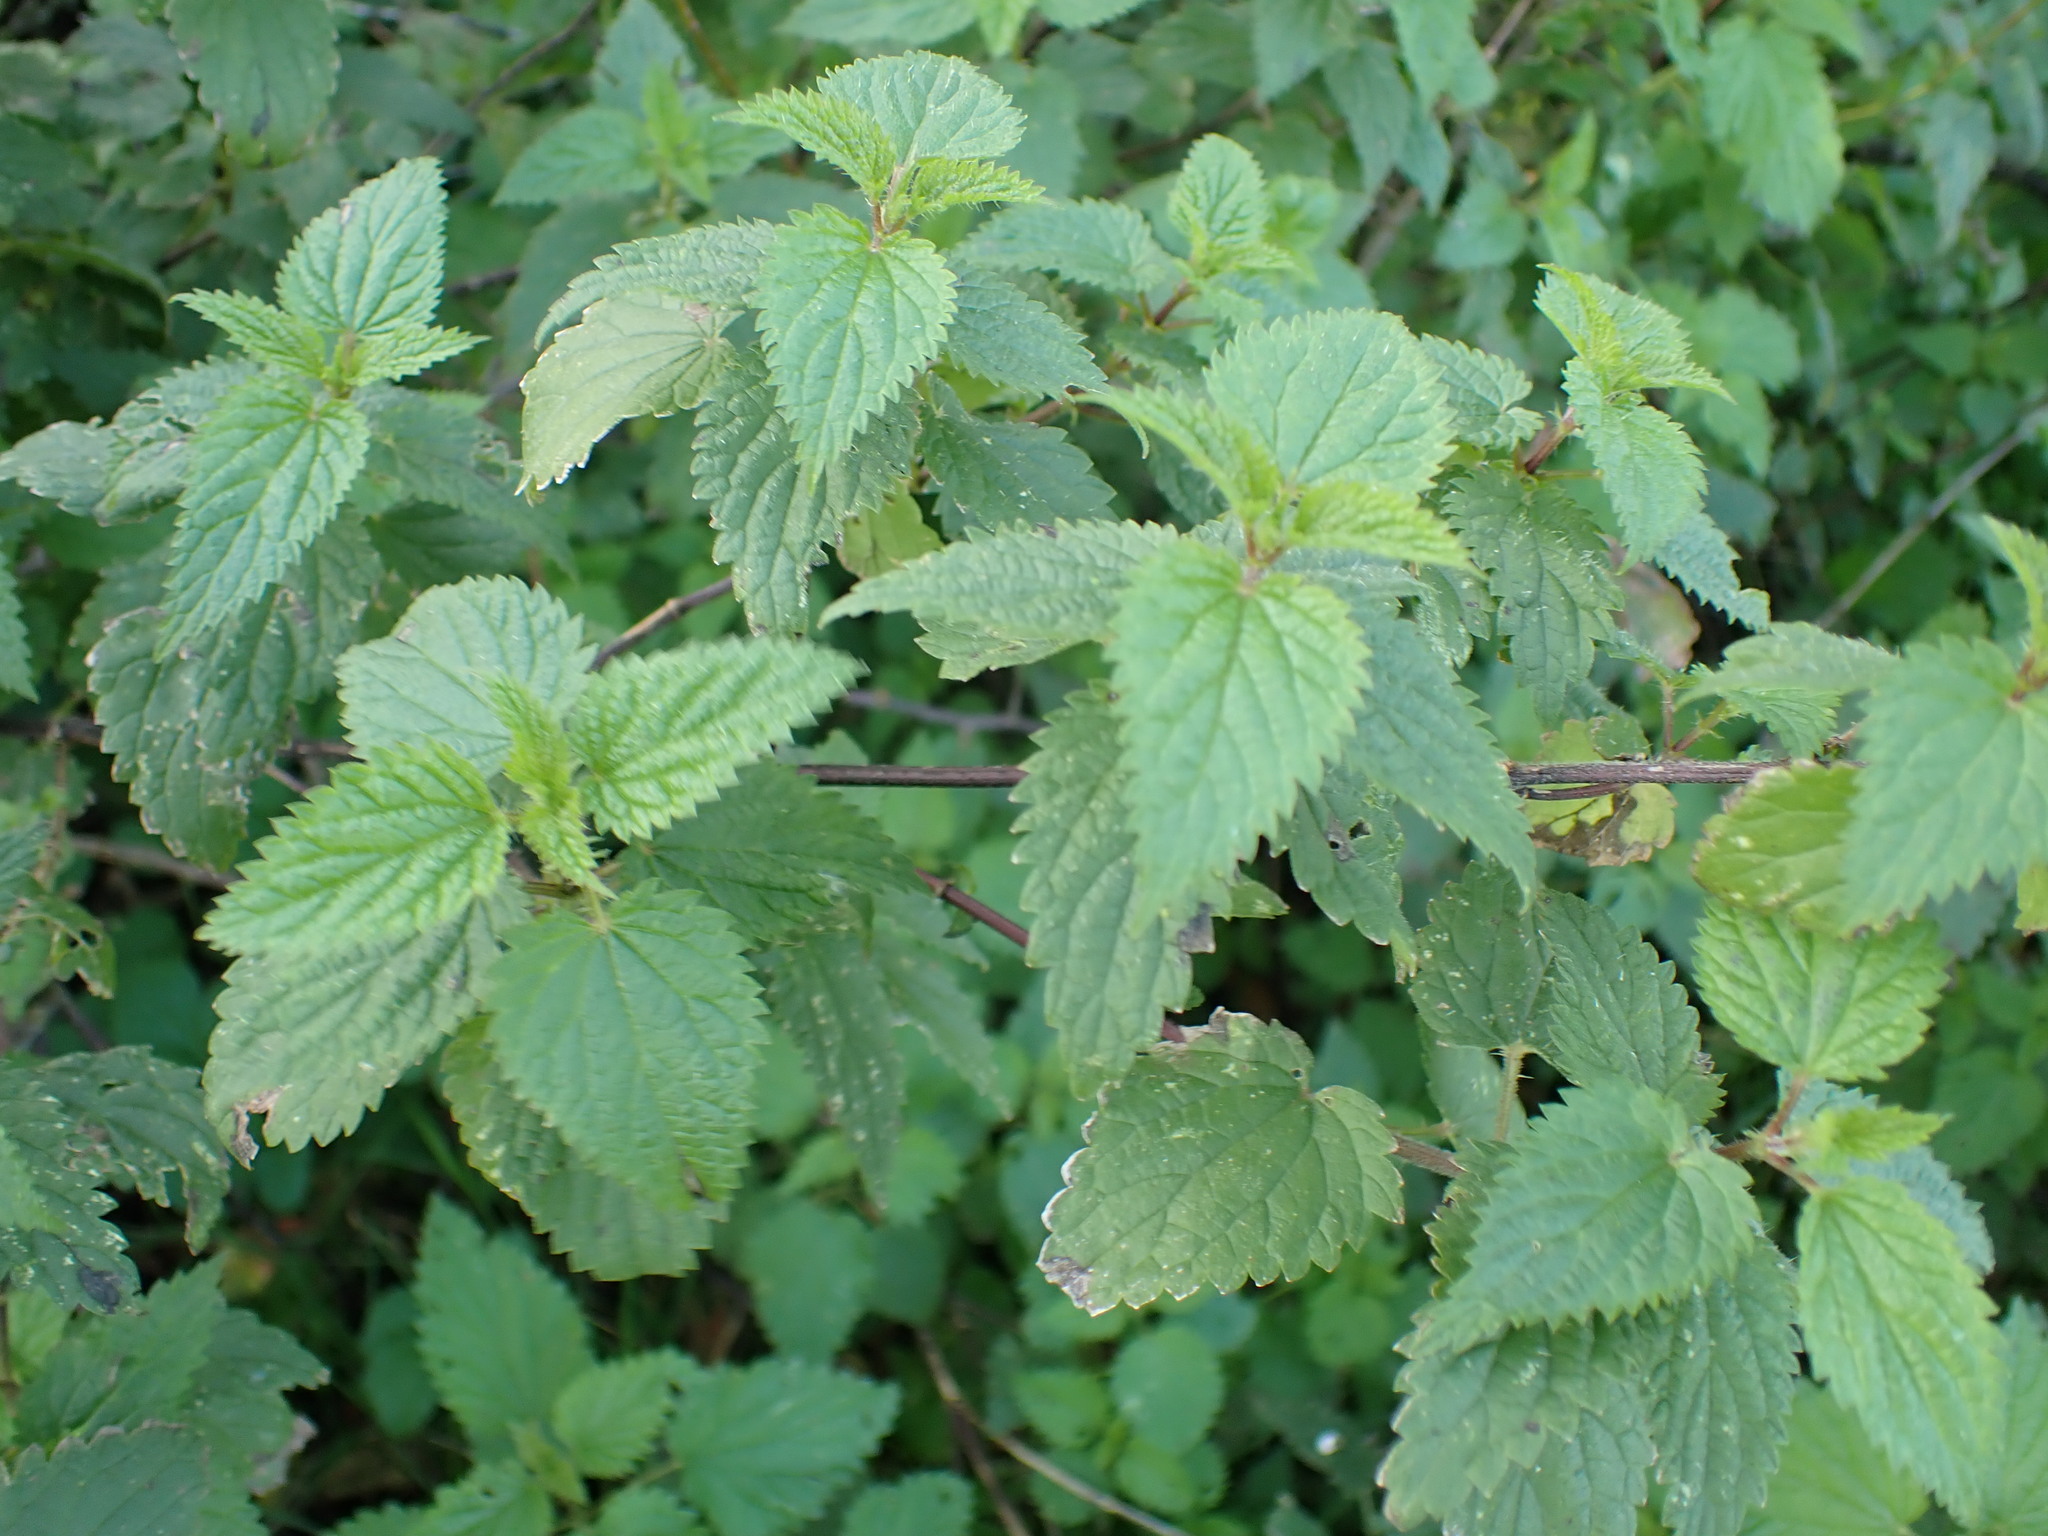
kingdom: Plantae
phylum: Tracheophyta
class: Magnoliopsida
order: Rosales
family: Urticaceae
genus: Urtica
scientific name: Urtica dioica
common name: Common nettle
